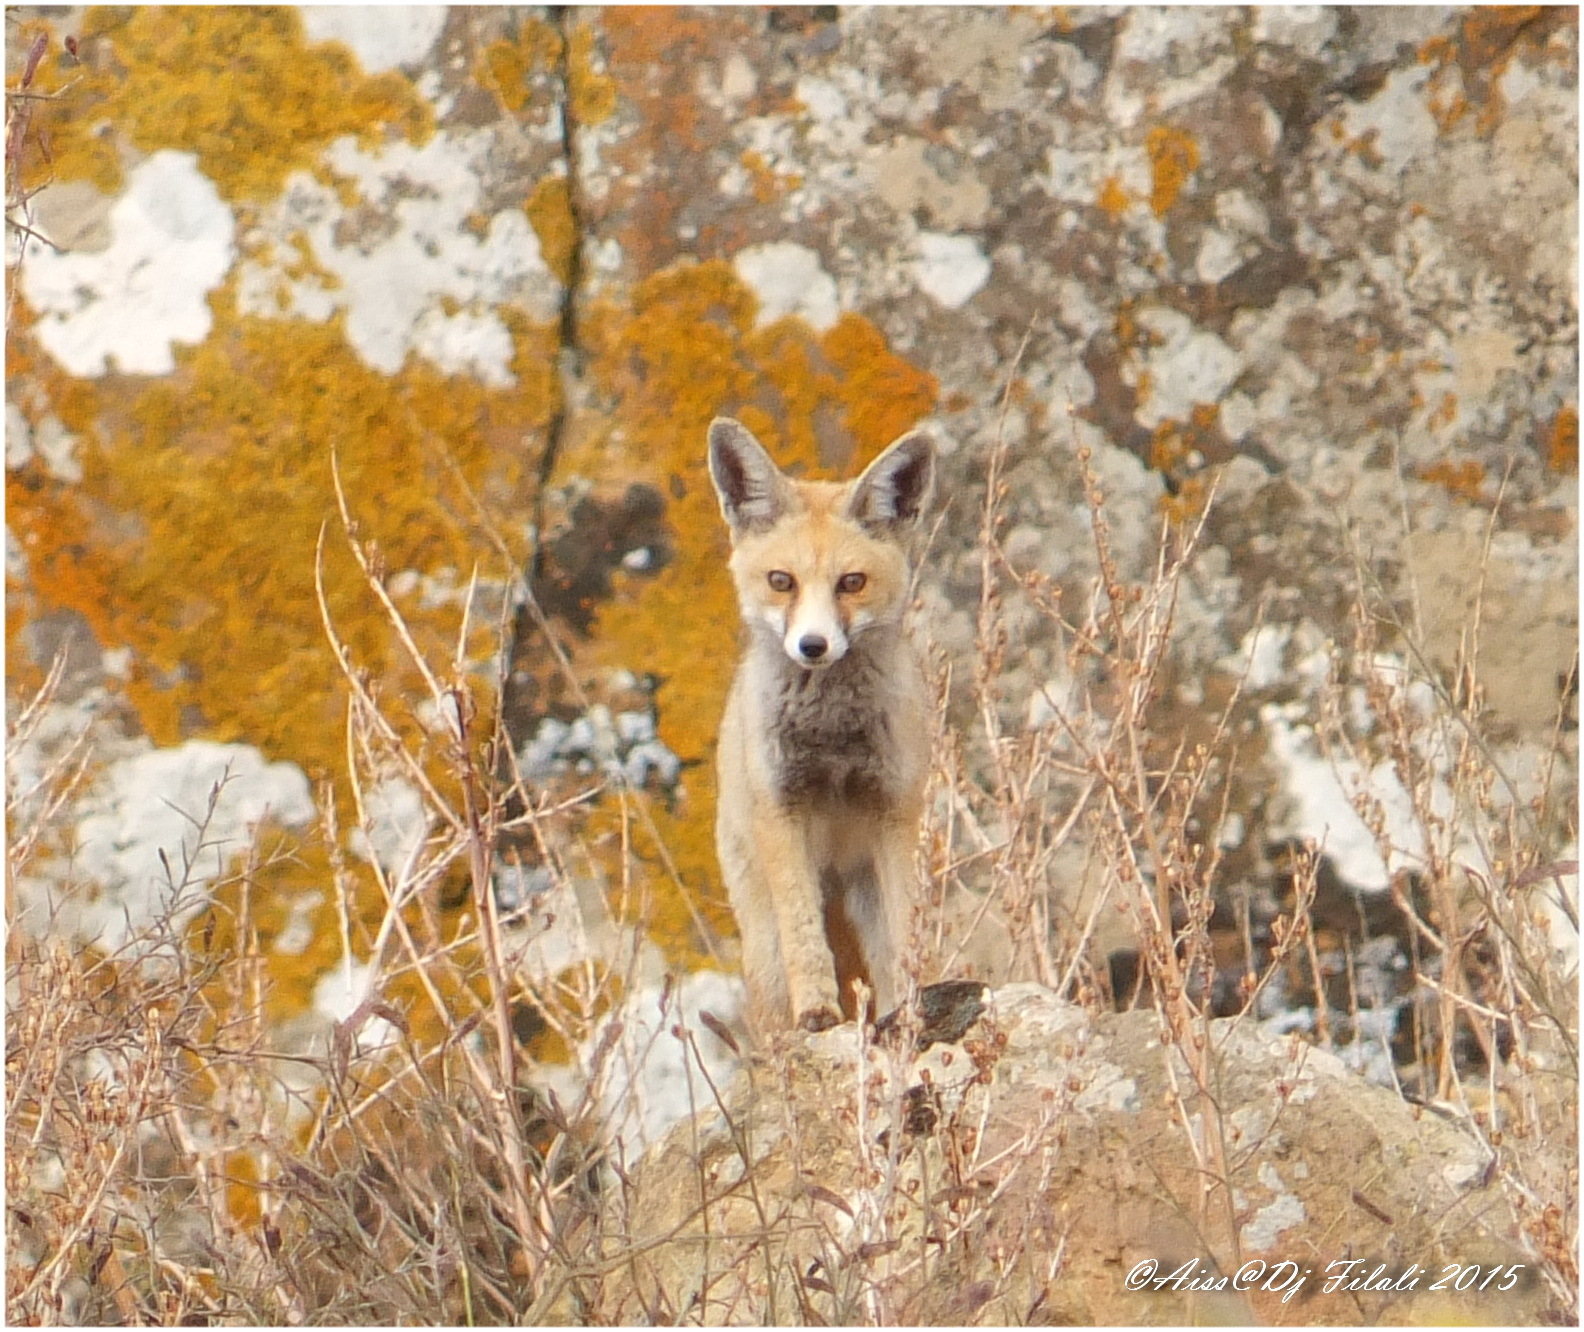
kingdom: Animalia
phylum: Chordata
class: Mammalia
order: Carnivora
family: Canidae
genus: Vulpes
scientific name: Vulpes vulpes
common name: Red fox
